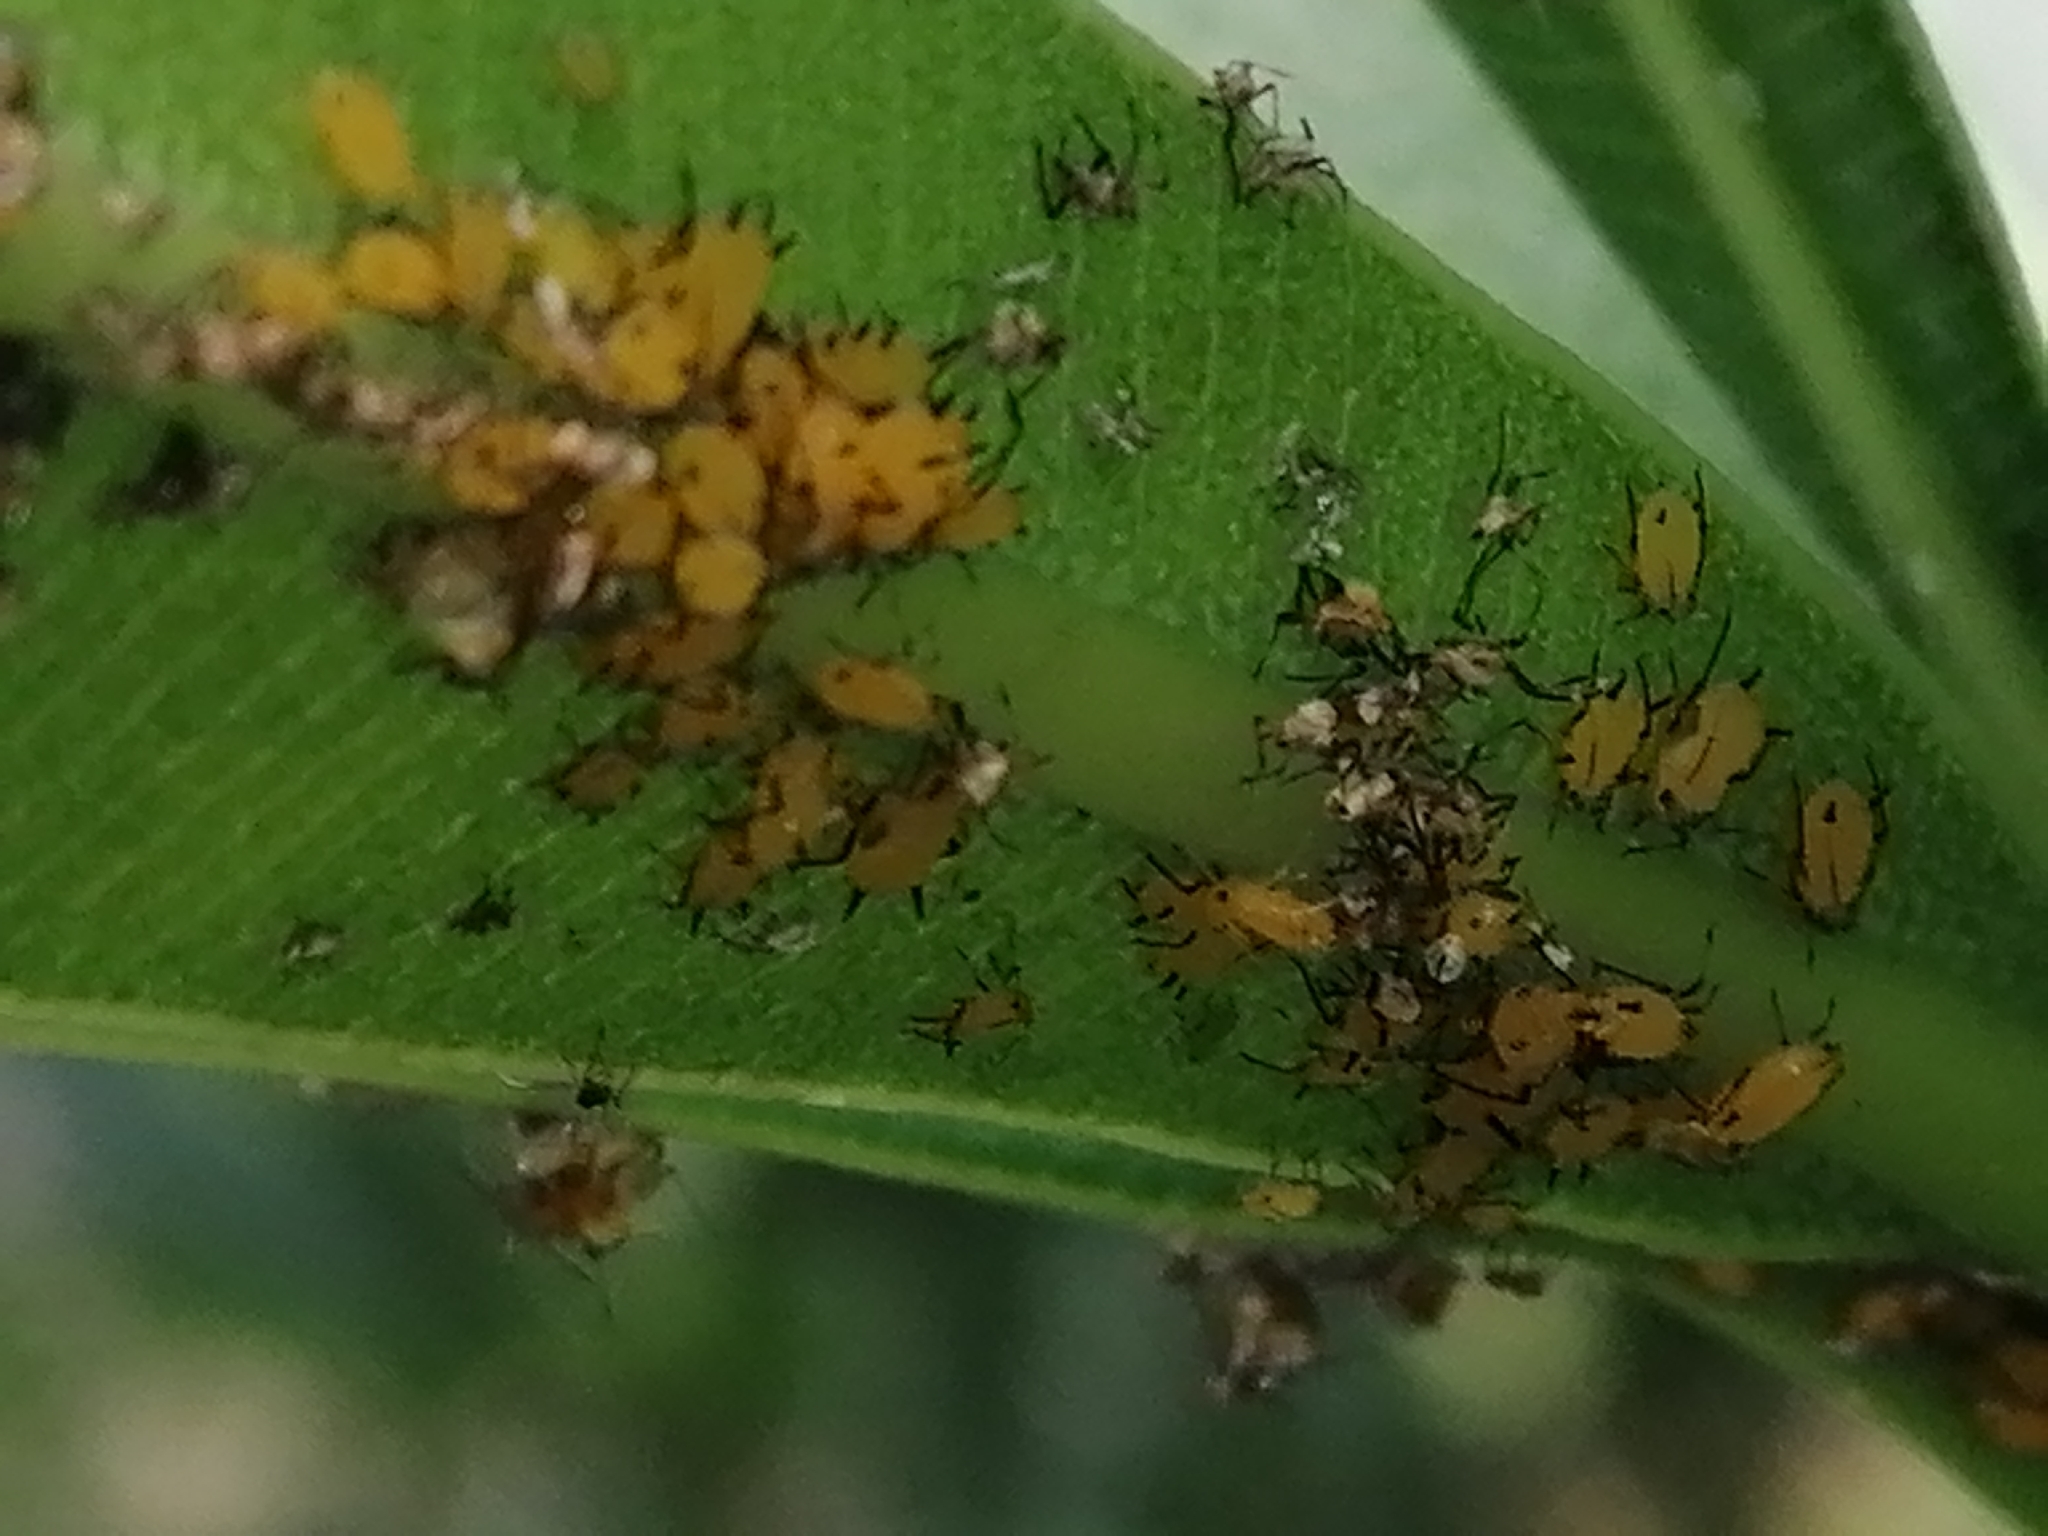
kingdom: Animalia
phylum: Arthropoda
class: Insecta
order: Hemiptera
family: Aphididae
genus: Aphis
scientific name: Aphis nerii
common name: Oleander aphid
